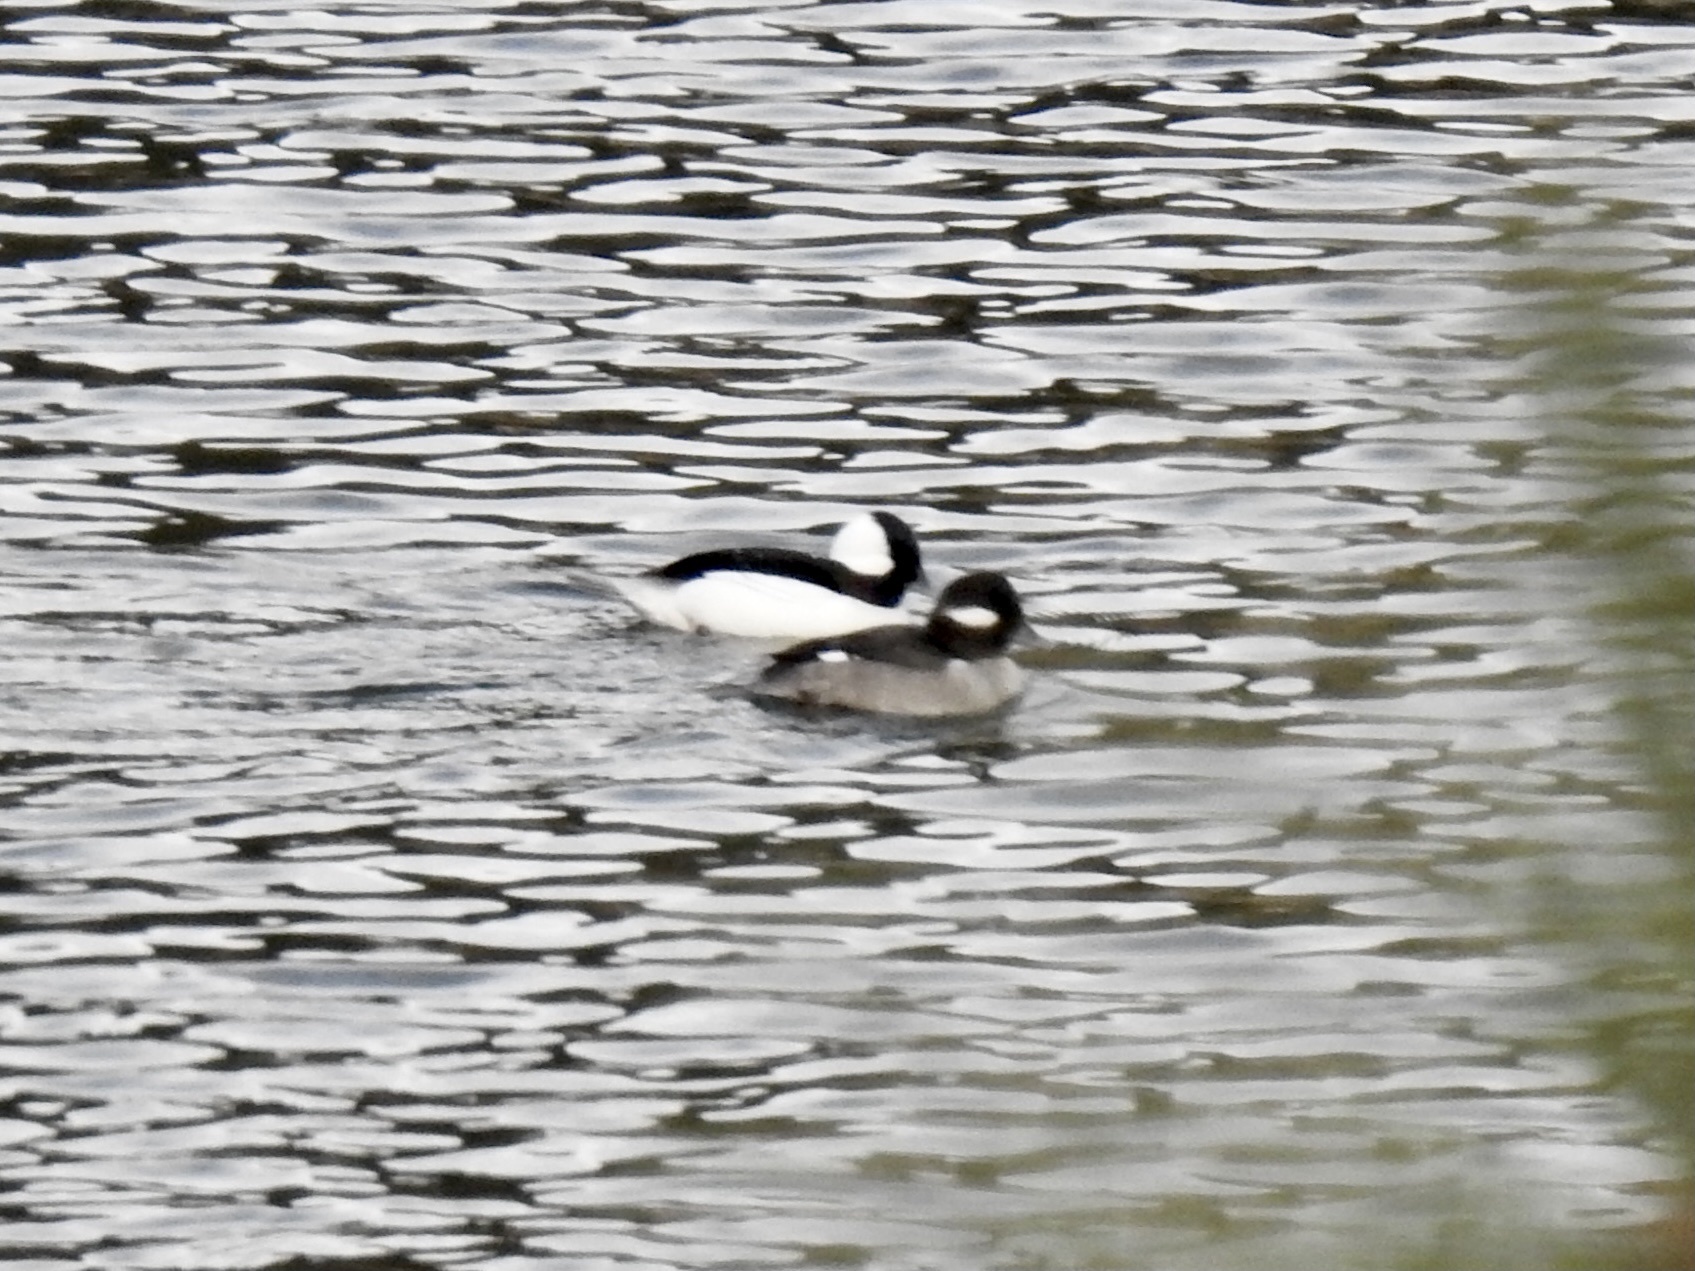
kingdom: Animalia
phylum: Chordata
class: Aves
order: Anseriformes
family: Anatidae
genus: Bucephala
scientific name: Bucephala albeola
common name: Bufflehead
